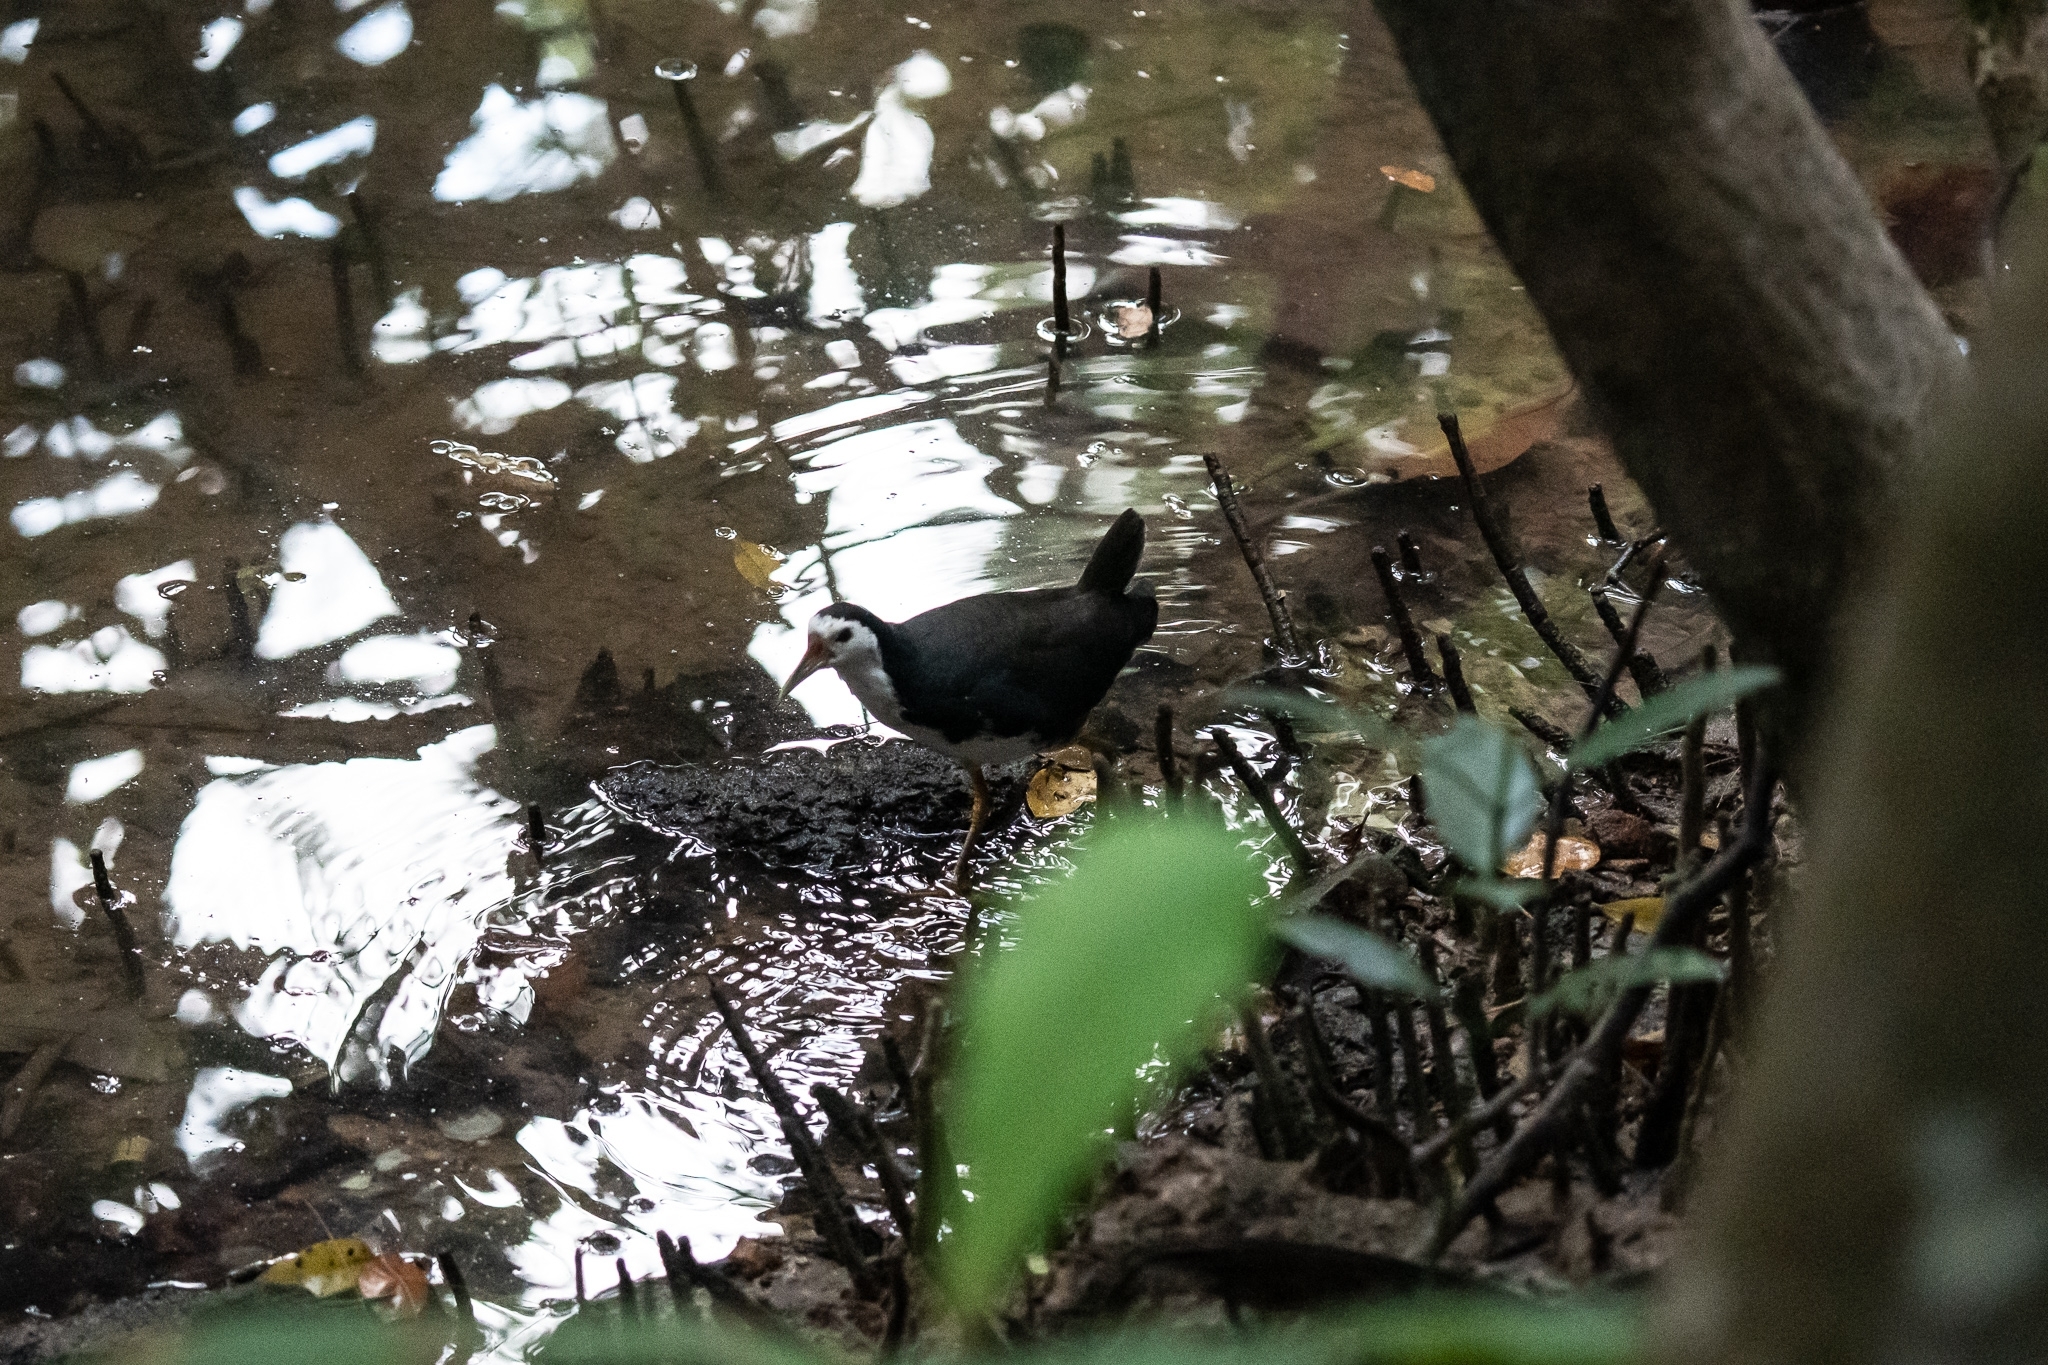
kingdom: Animalia
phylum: Chordata
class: Aves
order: Gruiformes
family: Rallidae
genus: Amaurornis
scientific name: Amaurornis phoenicurus
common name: White-breasted waterhen
